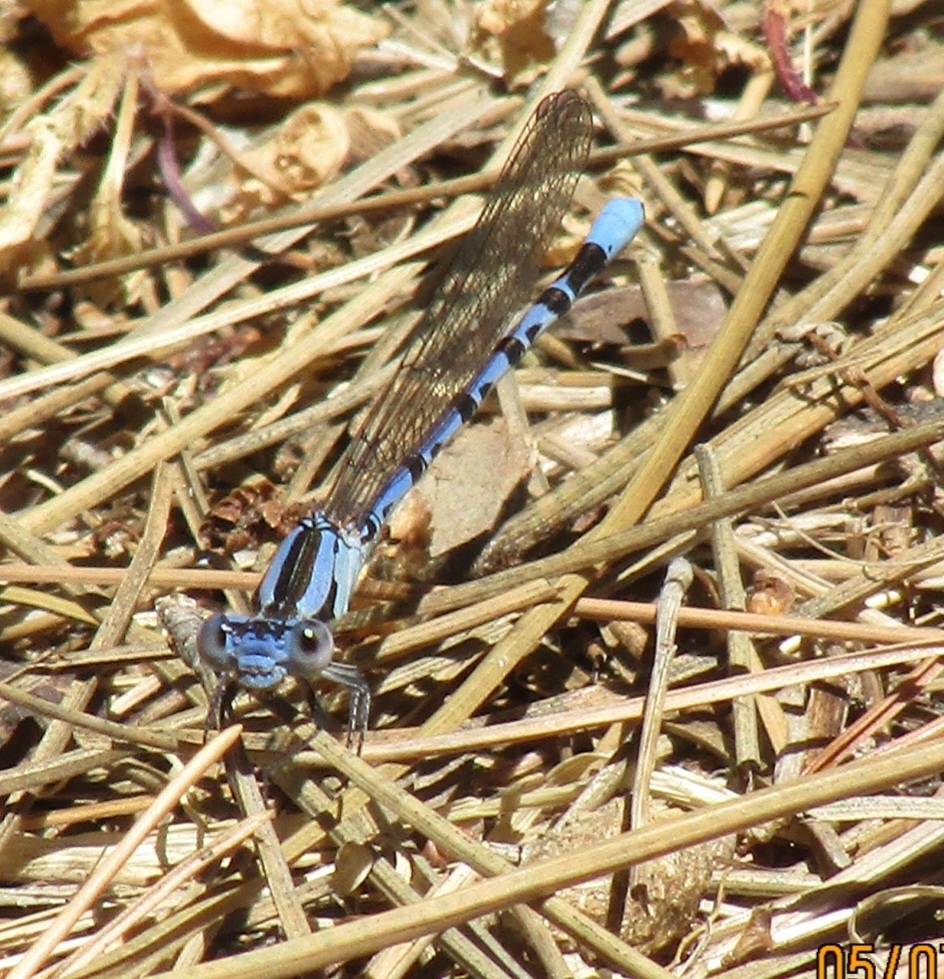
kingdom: Animalia
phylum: Arthropoda
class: Insecta
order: Odonata
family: Coenagrionidae
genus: Argia
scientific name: Argia vivida
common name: Vivid dancer
